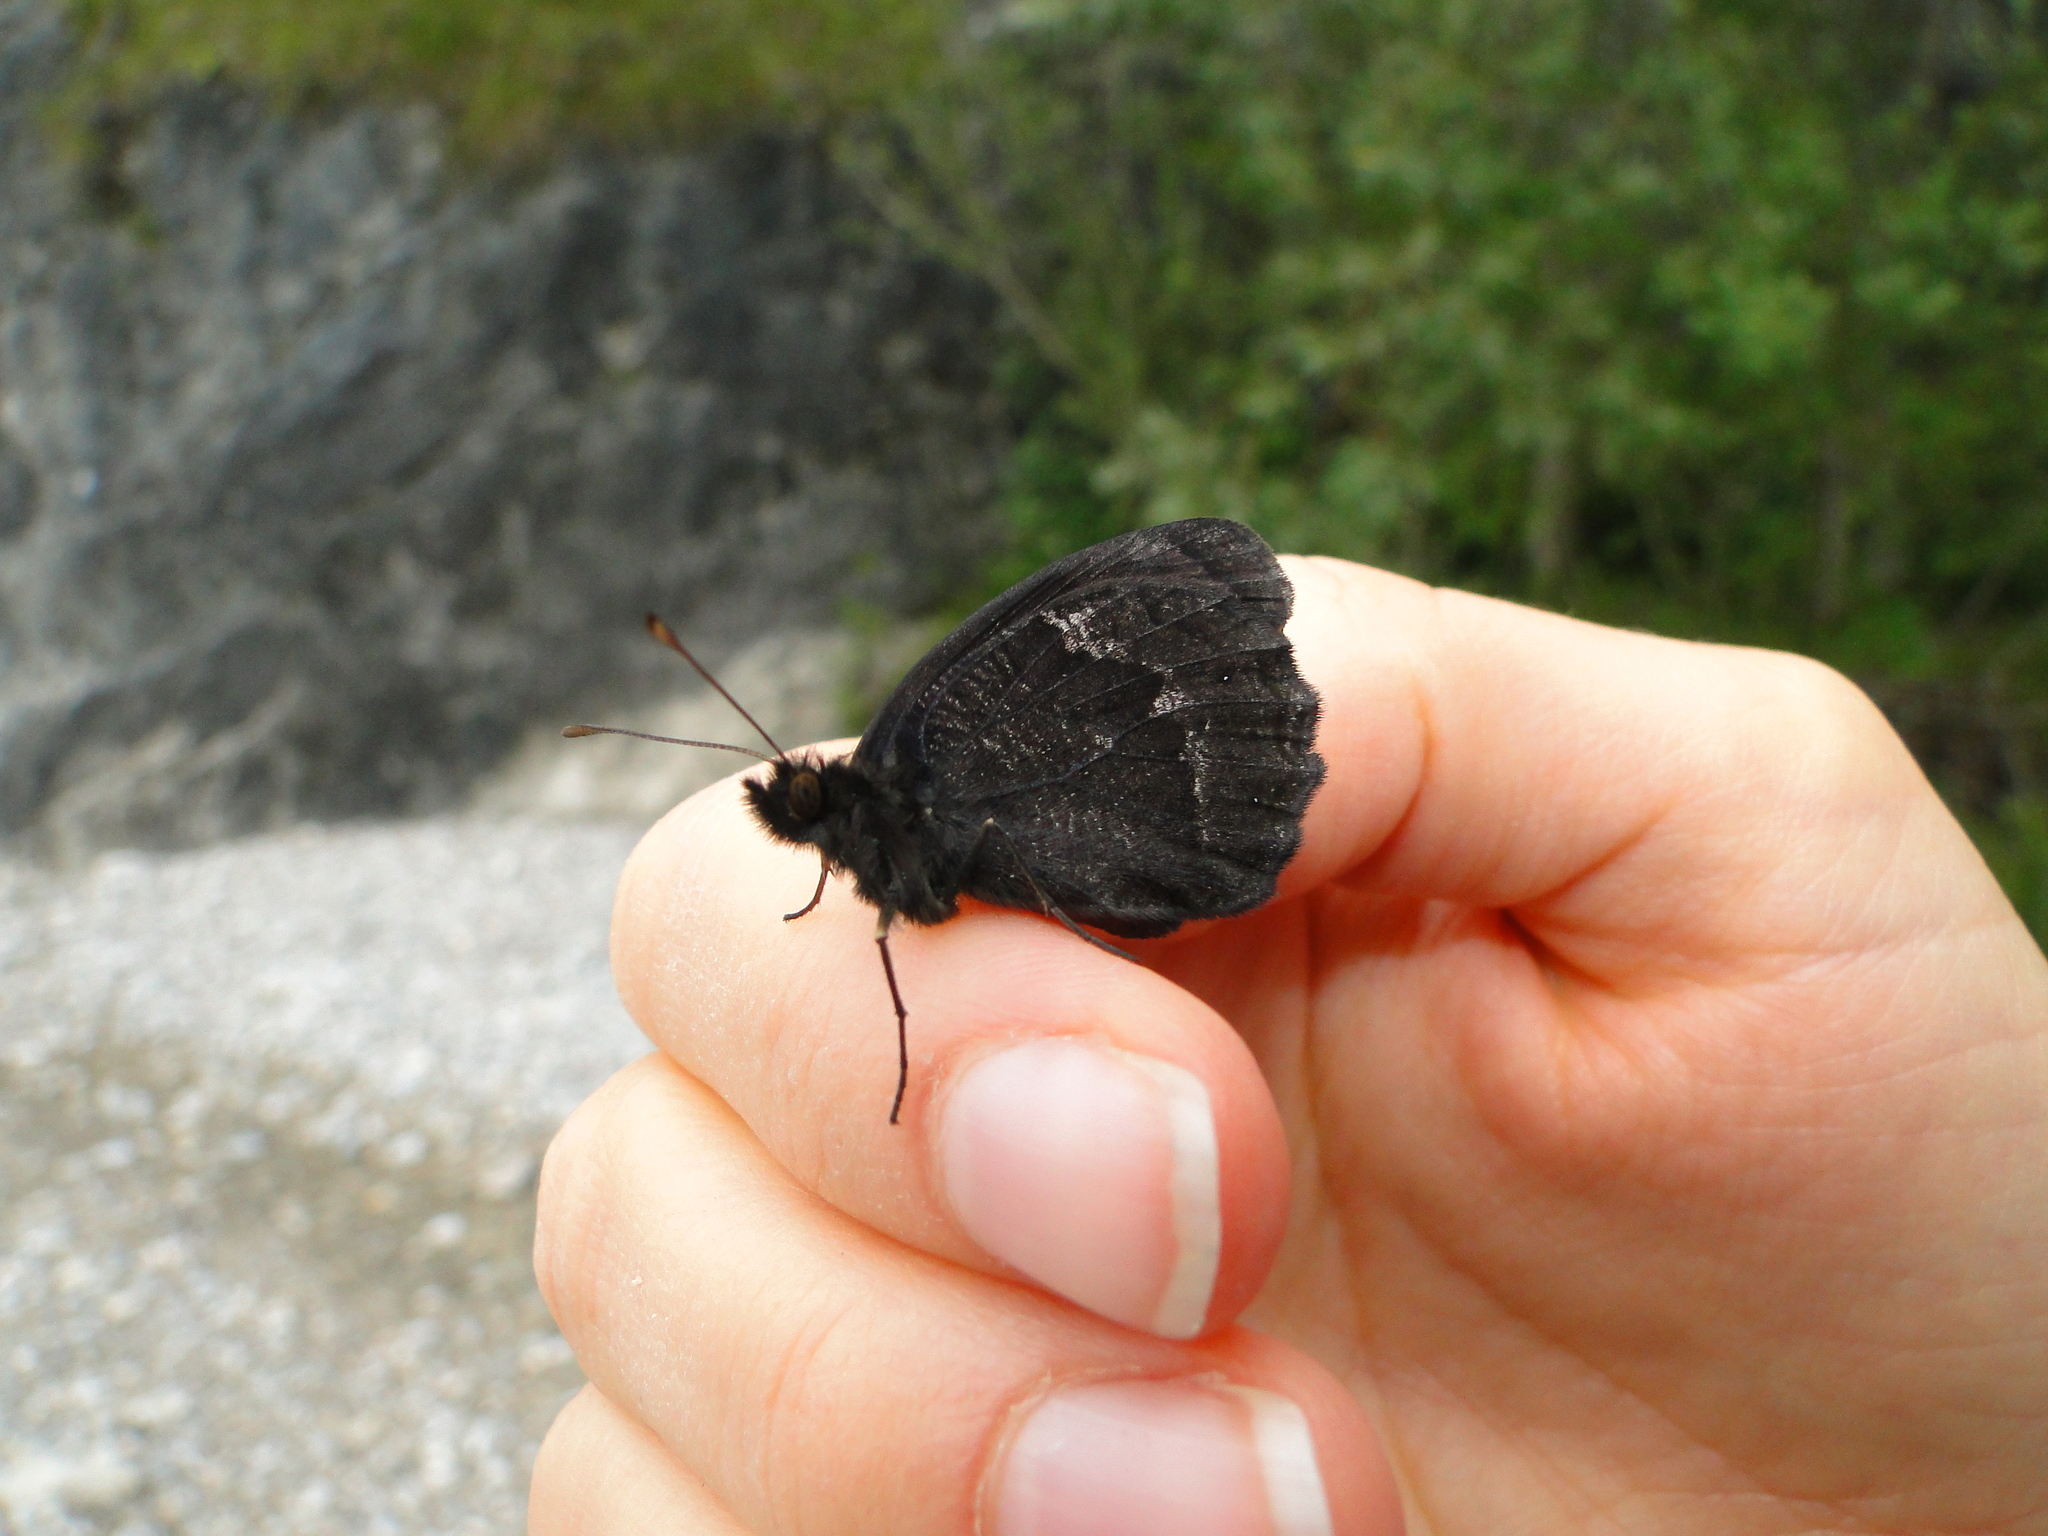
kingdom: Animalia
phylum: Arthropoda
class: Insecta
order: Lepidoptera
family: Nymphalidae
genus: Callerebia
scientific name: Callerebia mani
